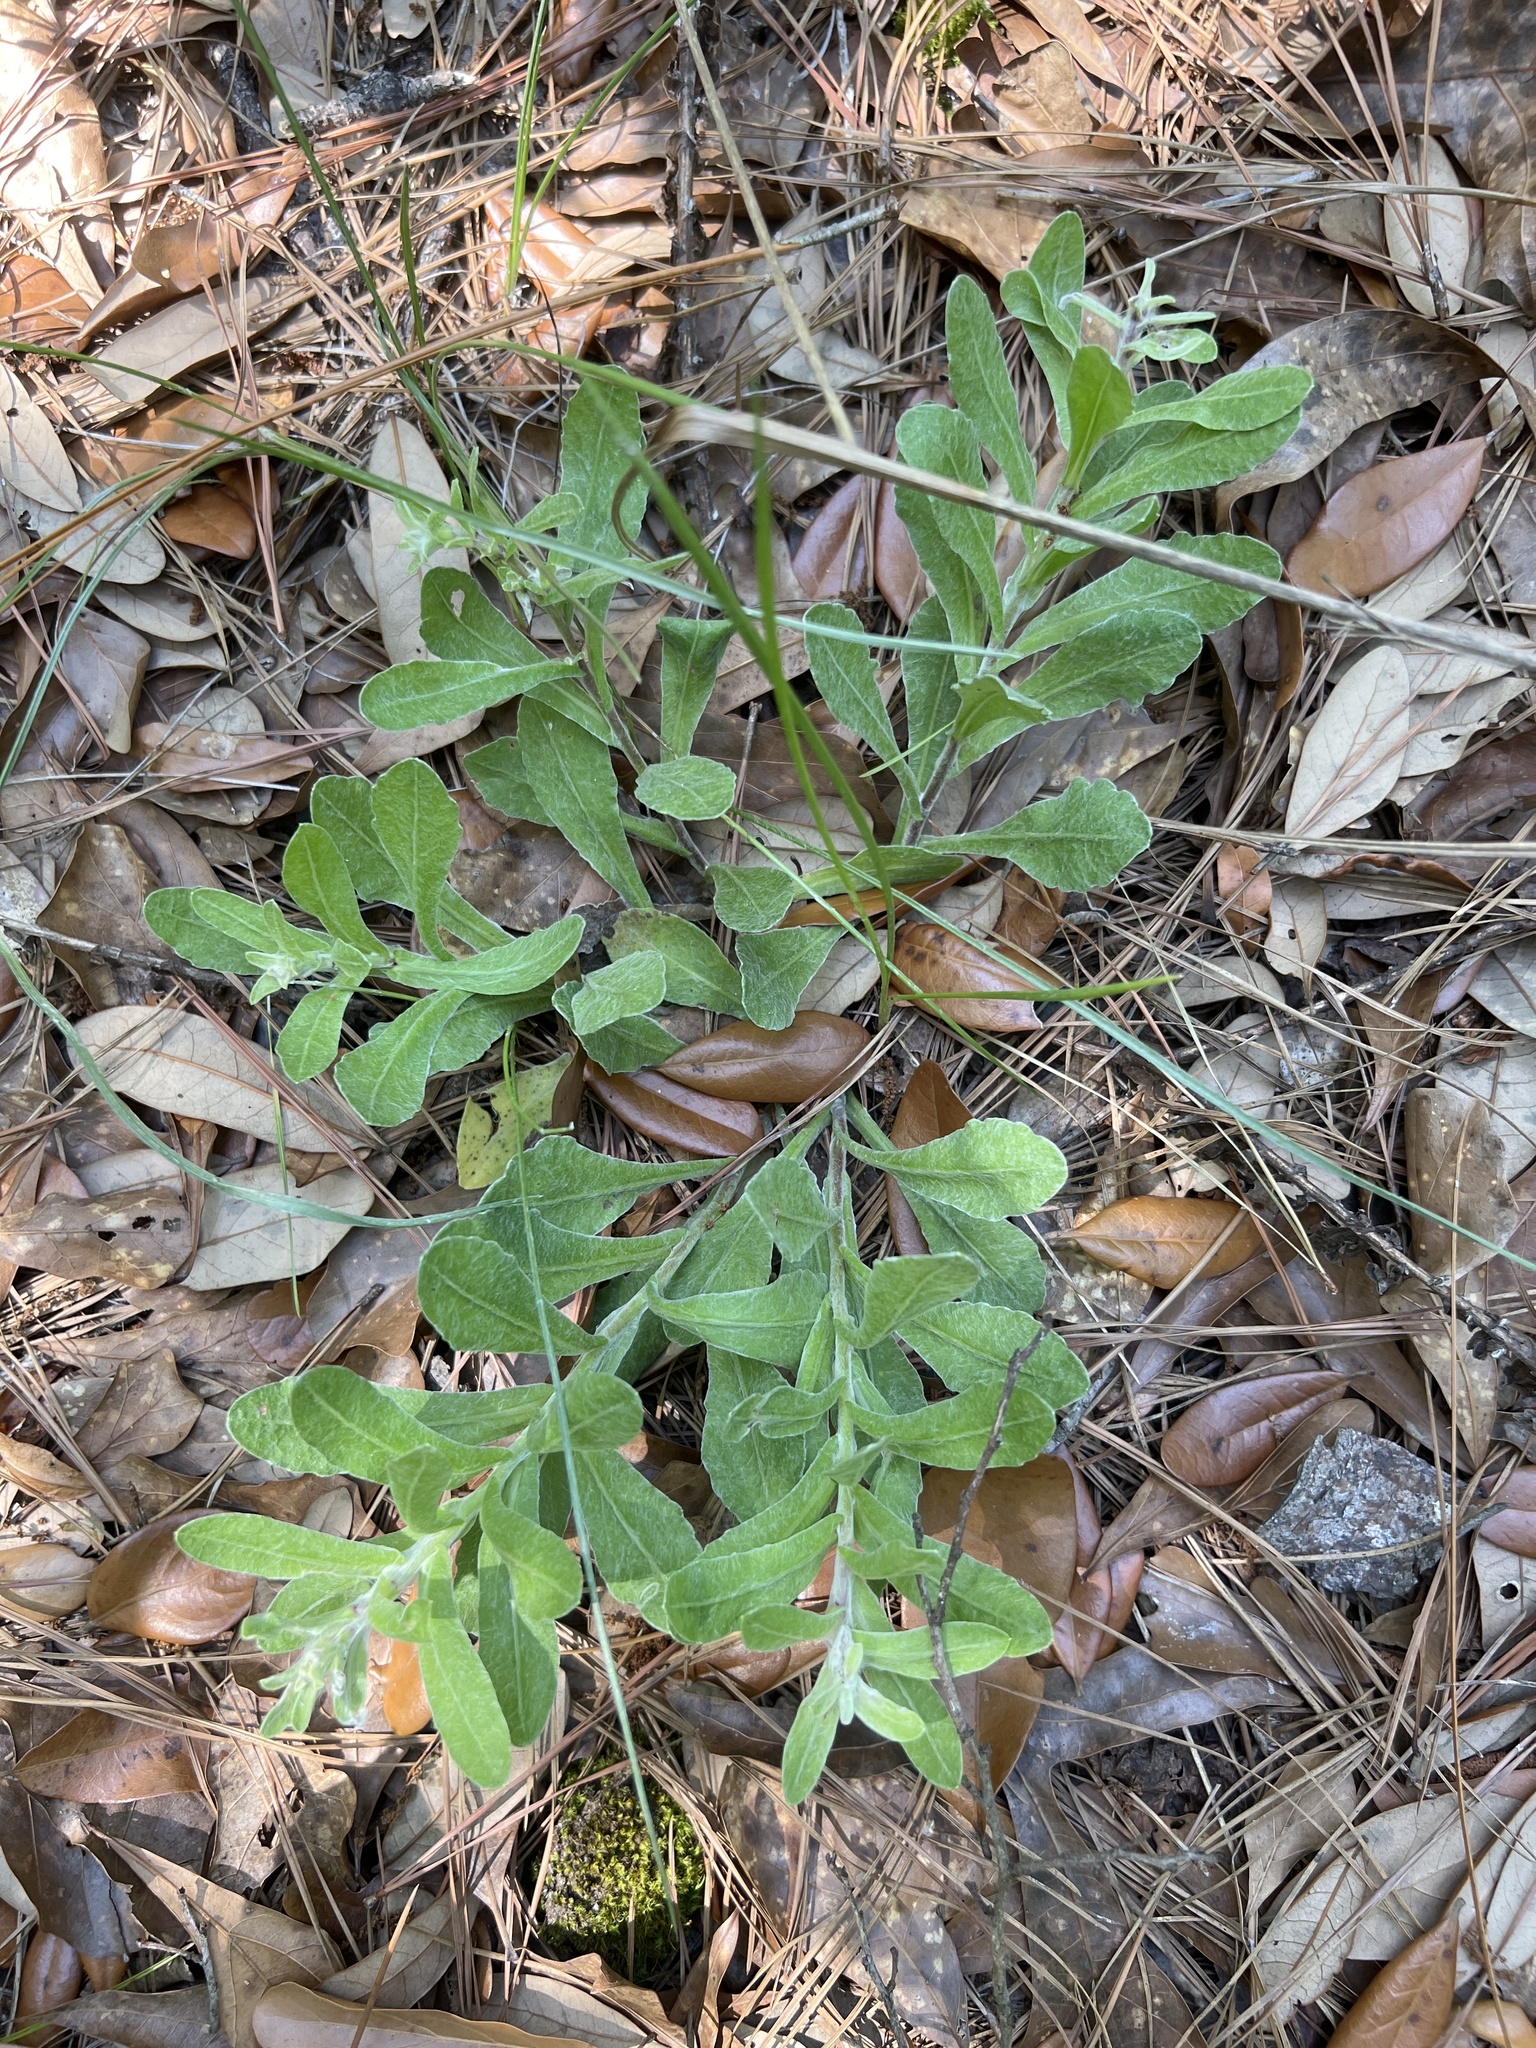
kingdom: Plantae
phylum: Tracheophyta
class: Magnoliopsida
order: Asterales
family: Asteraceae
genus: Chrysopsis
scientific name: Chrysopsis gossypina
